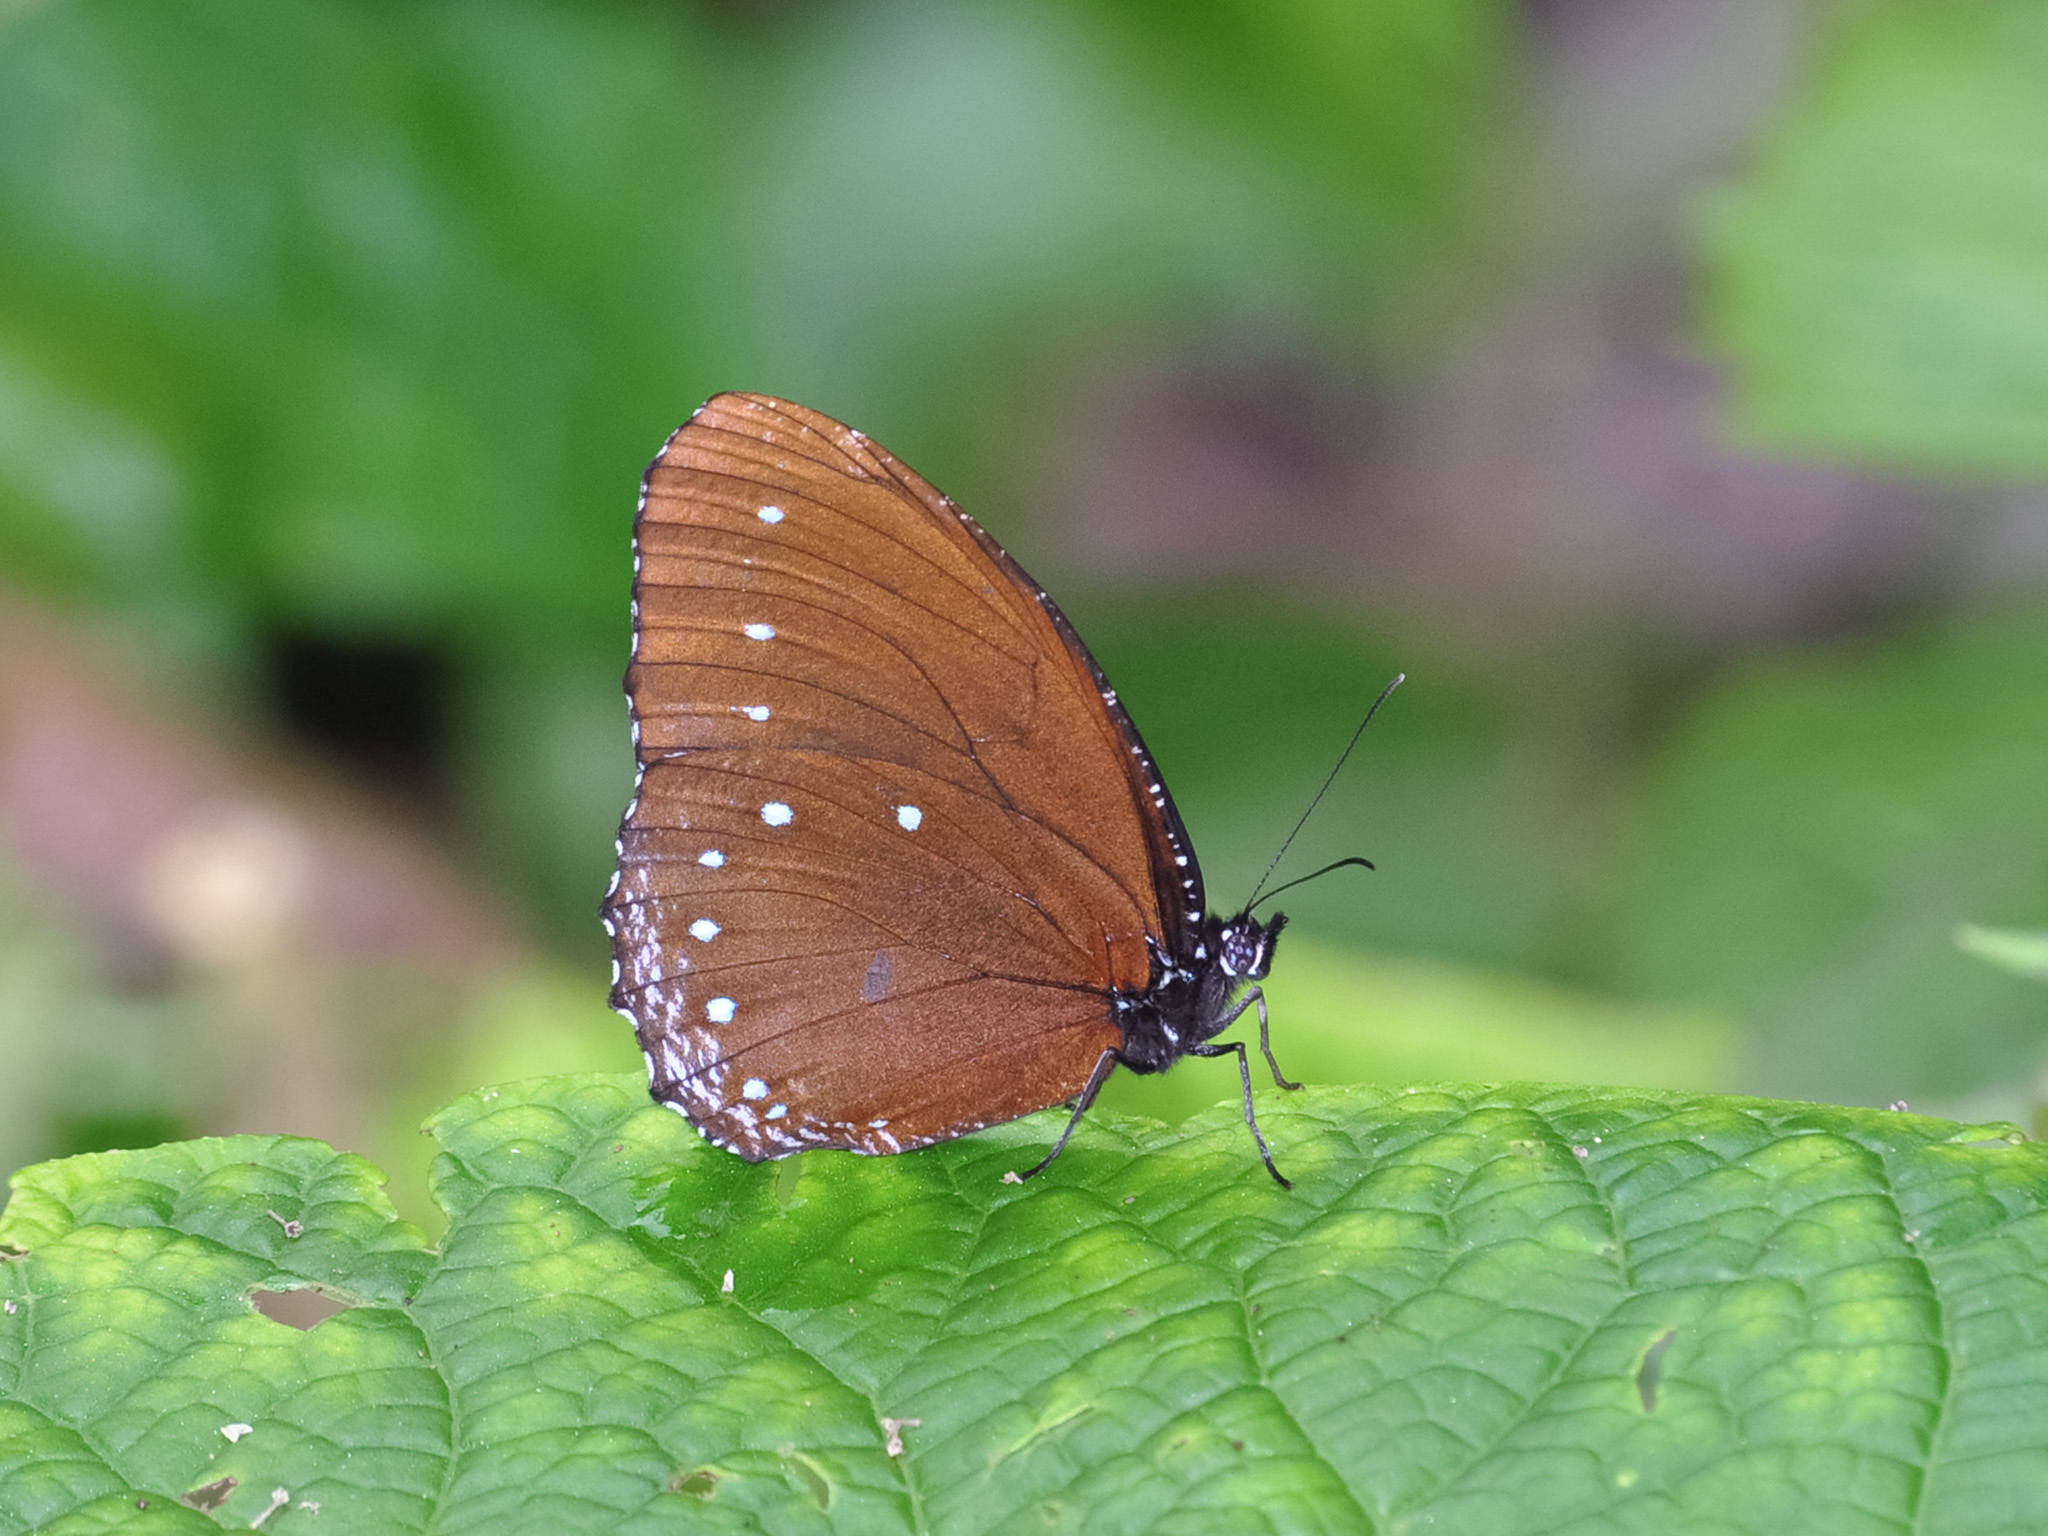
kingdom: Animalia
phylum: Arthropoda
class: Insecta
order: Lepidoptera
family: Nymphalidae
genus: Elymnias
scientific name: Elymnias patna
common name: Blue-striped palmfly
